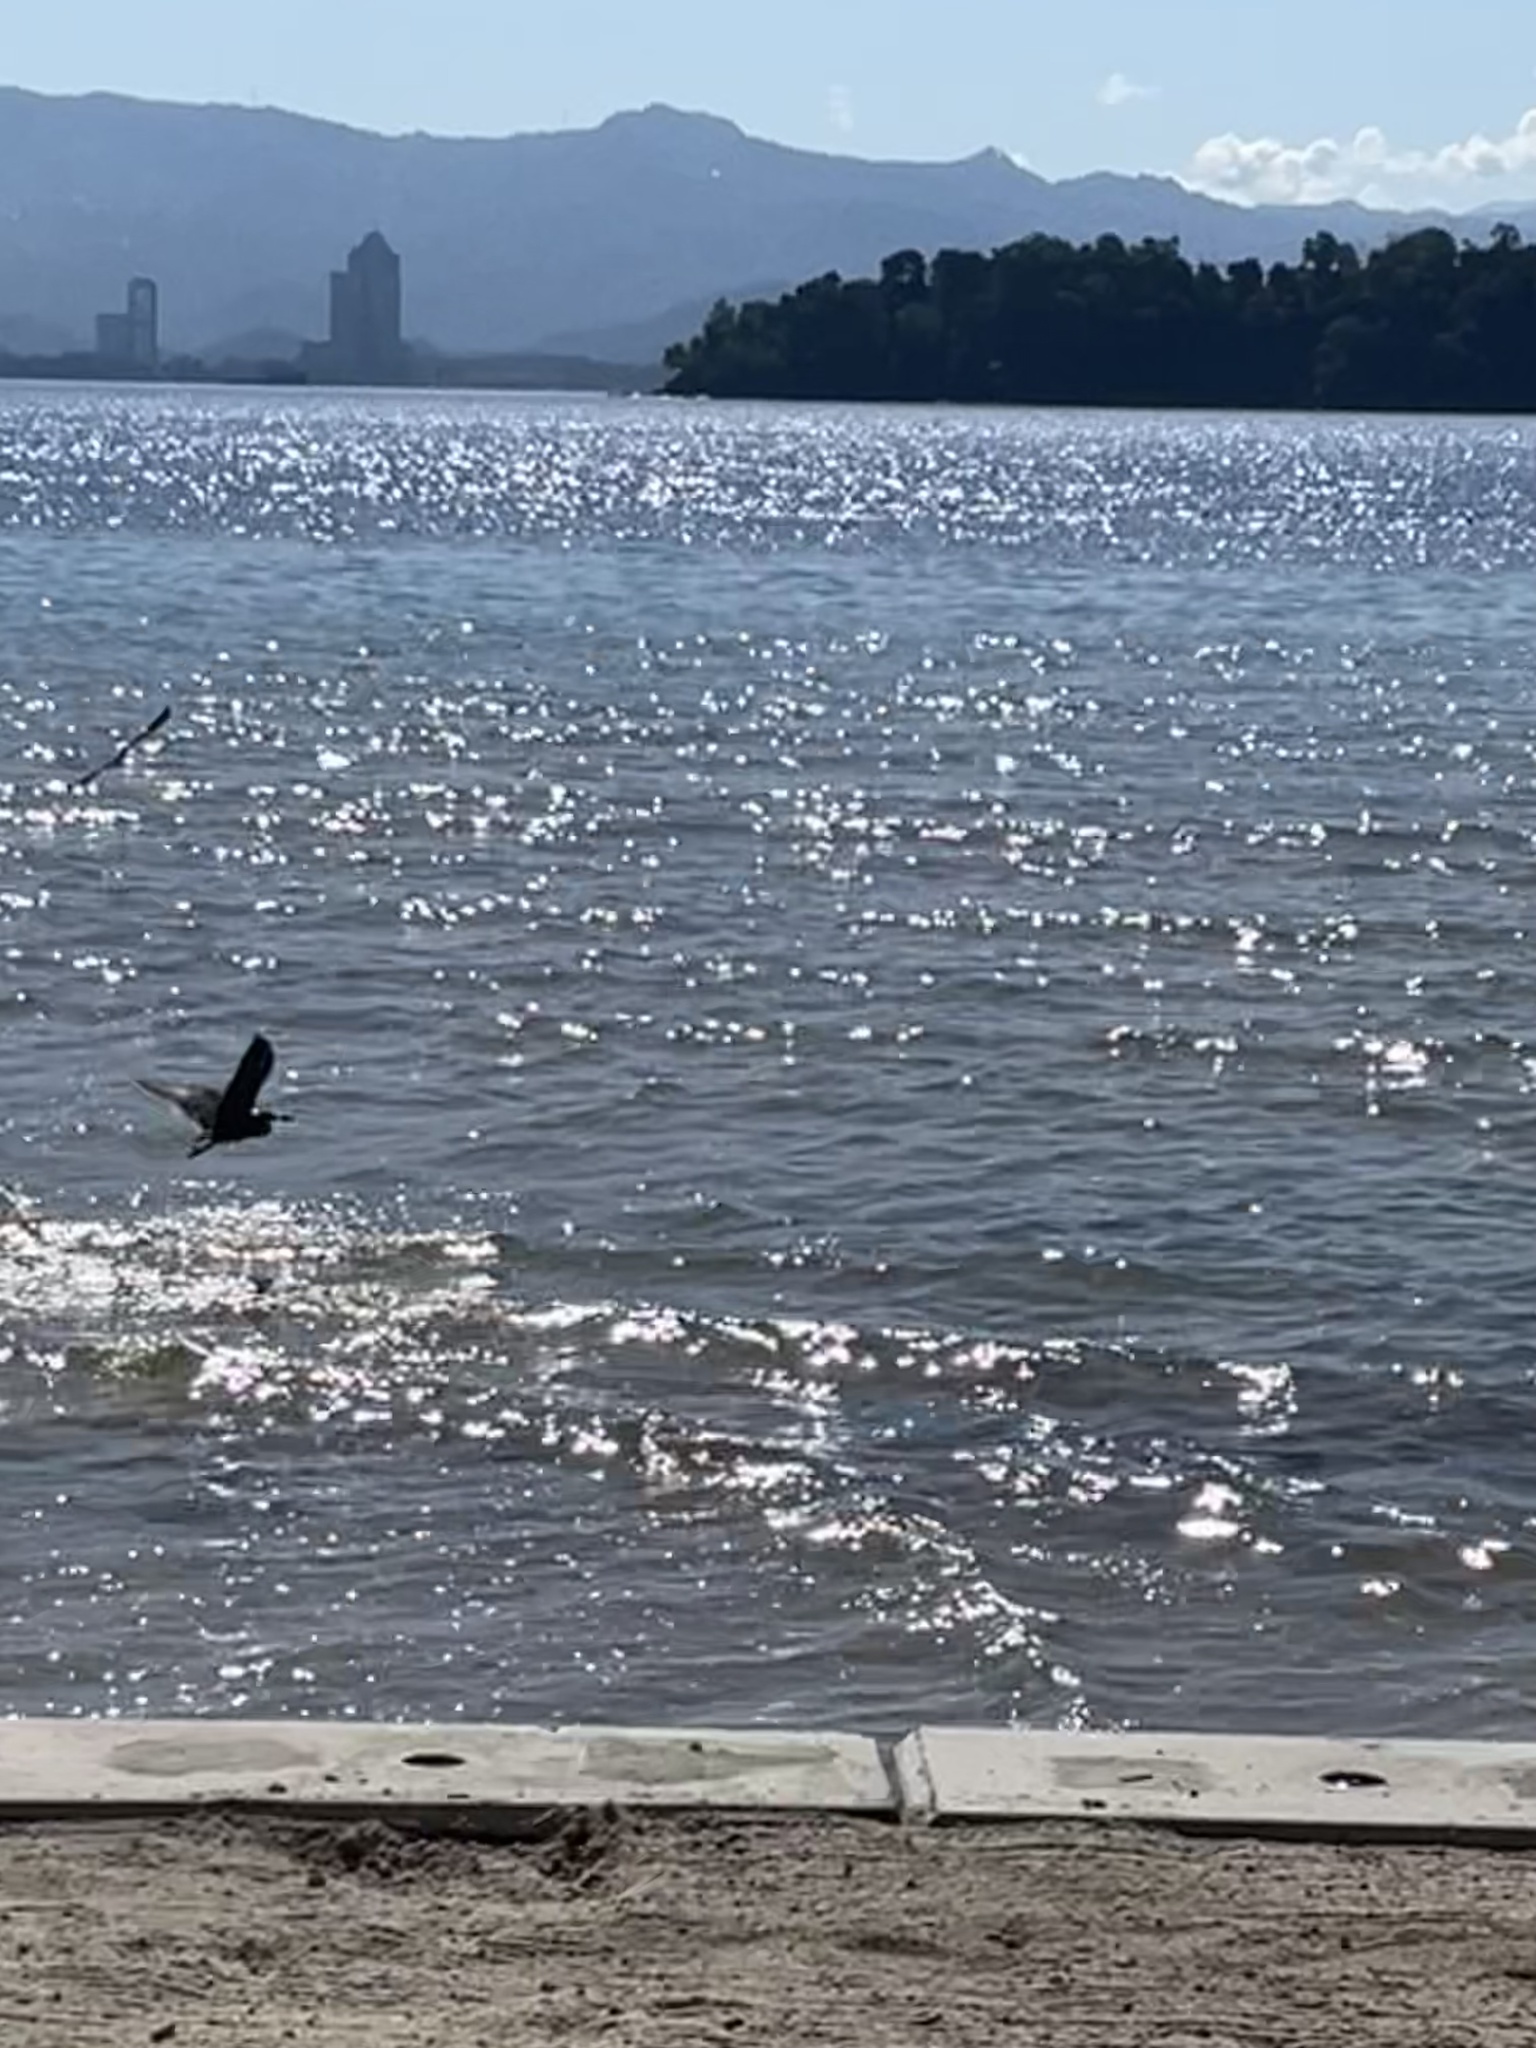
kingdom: Animalia
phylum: Chordata
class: Aves
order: Pelecaniformes
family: Ardeidae
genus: Egretta
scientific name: Egretta sacra
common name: Pacific reef heron
